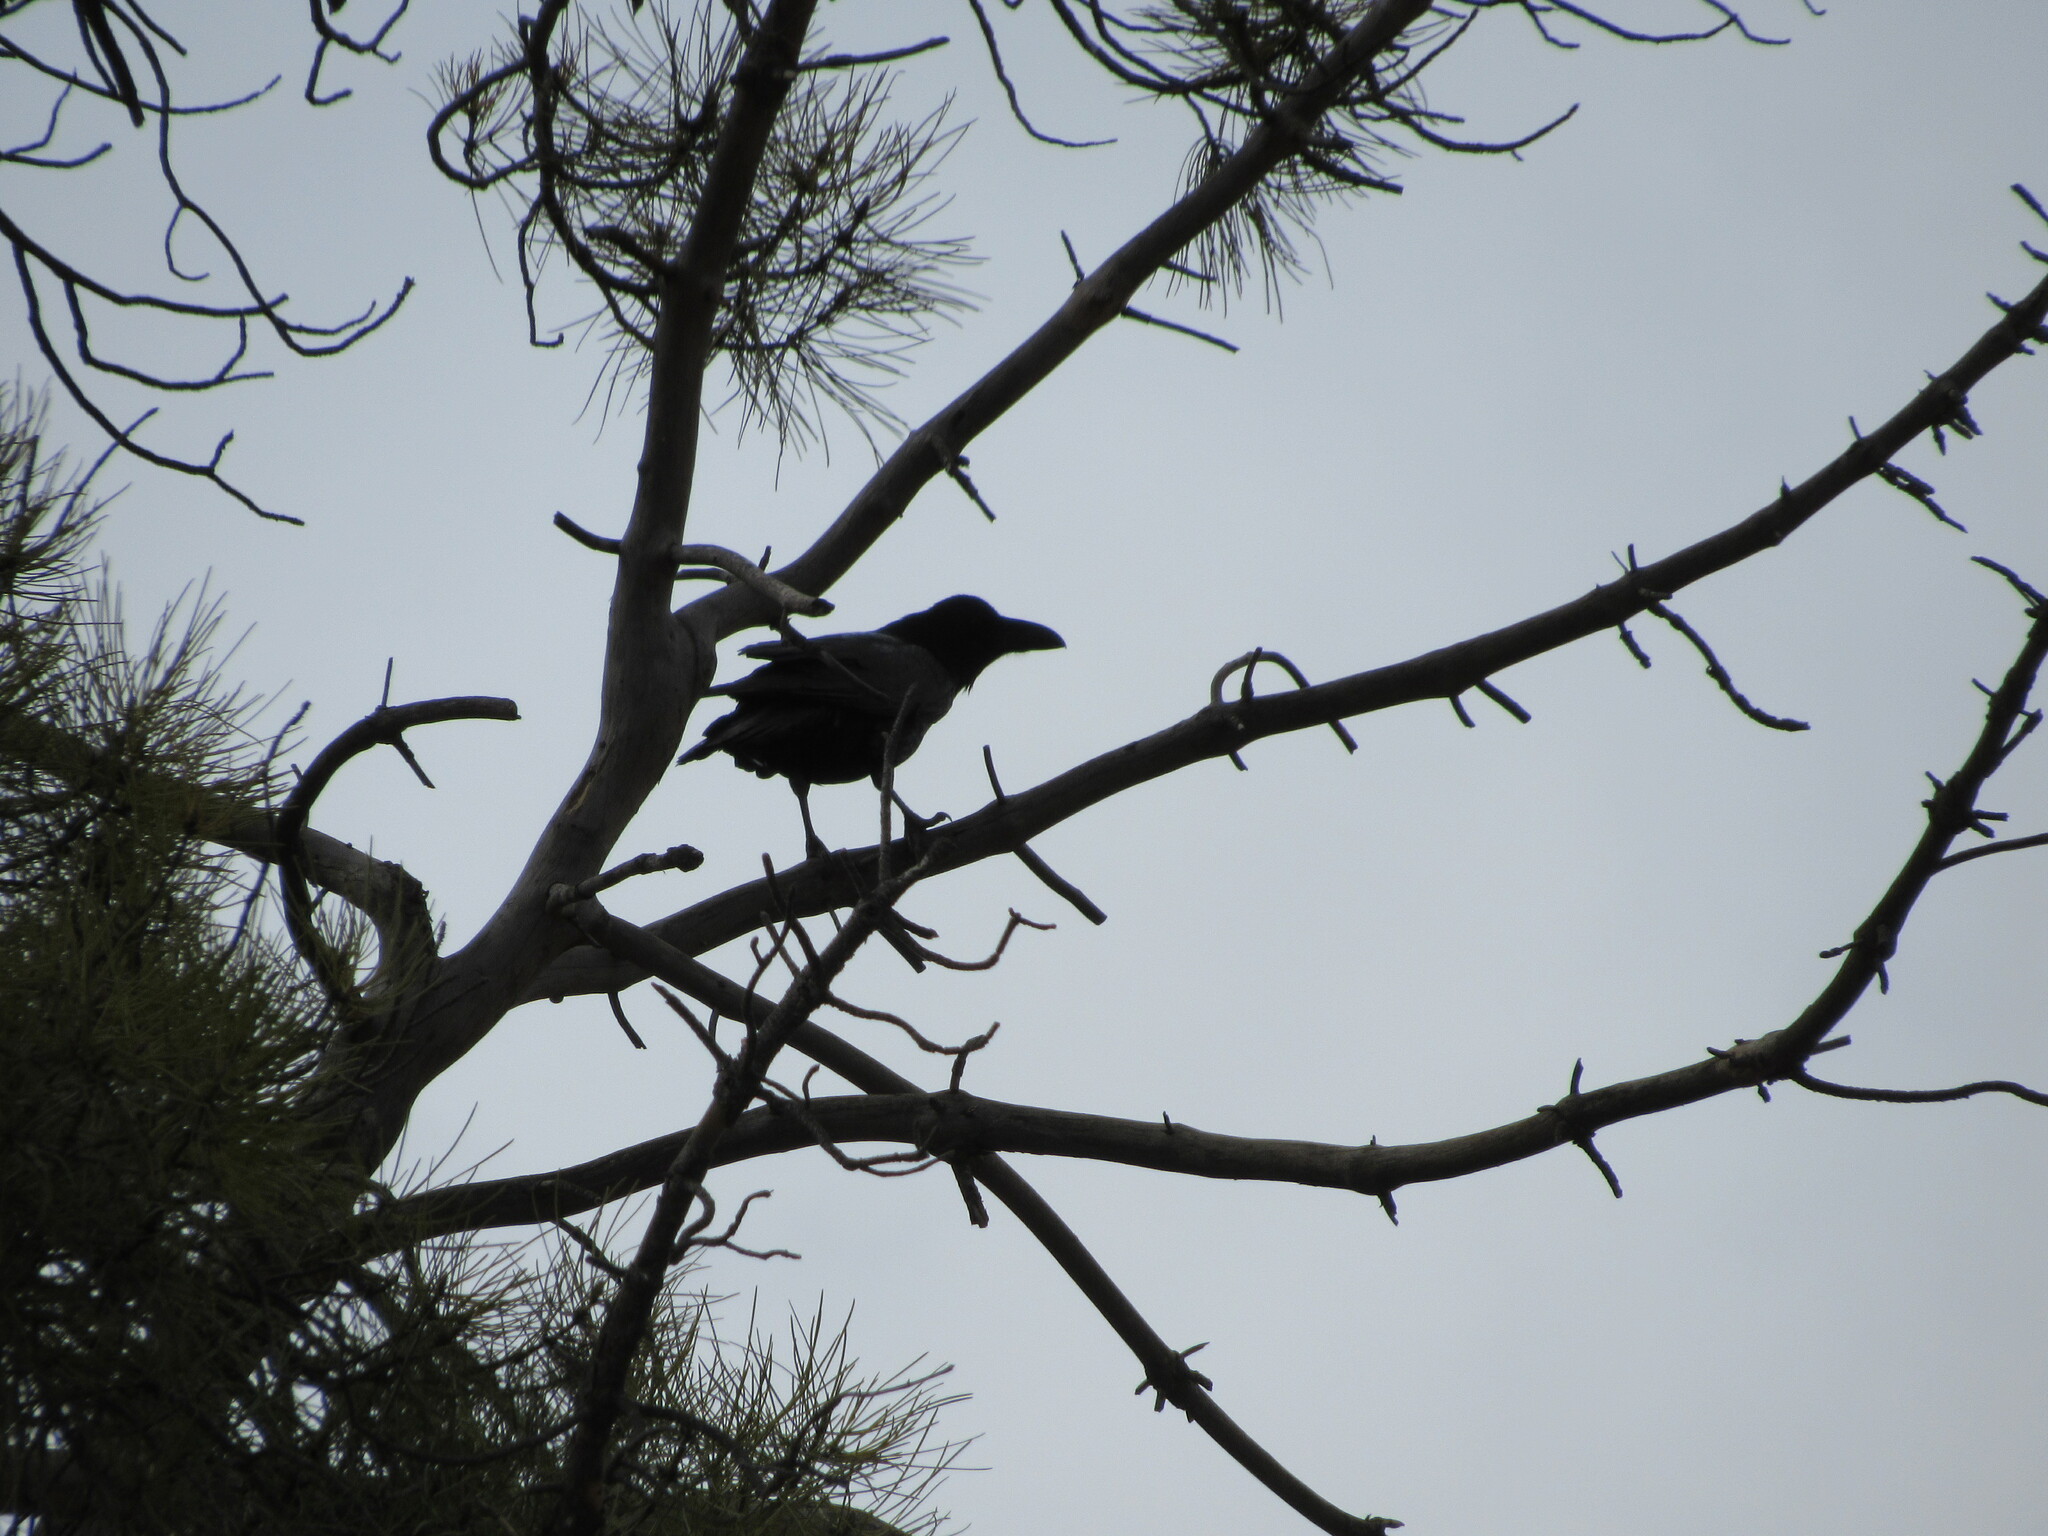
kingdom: Animalia
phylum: Chordata
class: Aves
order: Passeriformes
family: Corvidae
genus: Corvus
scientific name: Corvus corax
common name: Common raven
